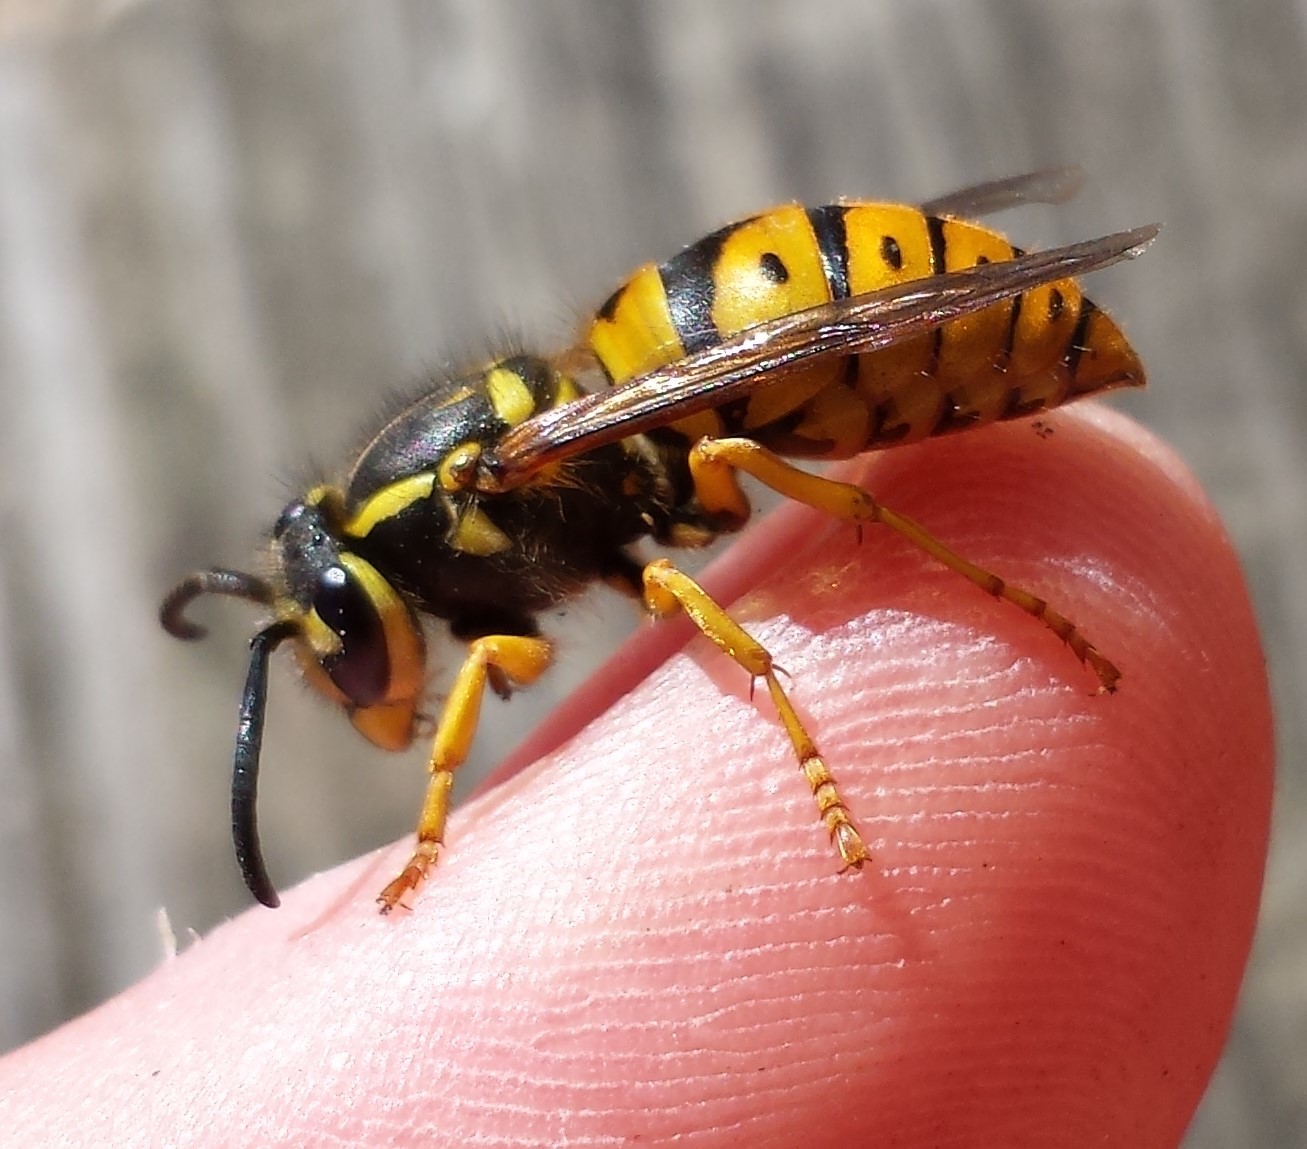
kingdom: Animalia
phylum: Arthropoda
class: Insecta
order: Hymenoptera
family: Vespidae
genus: Vespula
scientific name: Vespula maculifrons
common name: Eastern yellowjacket
